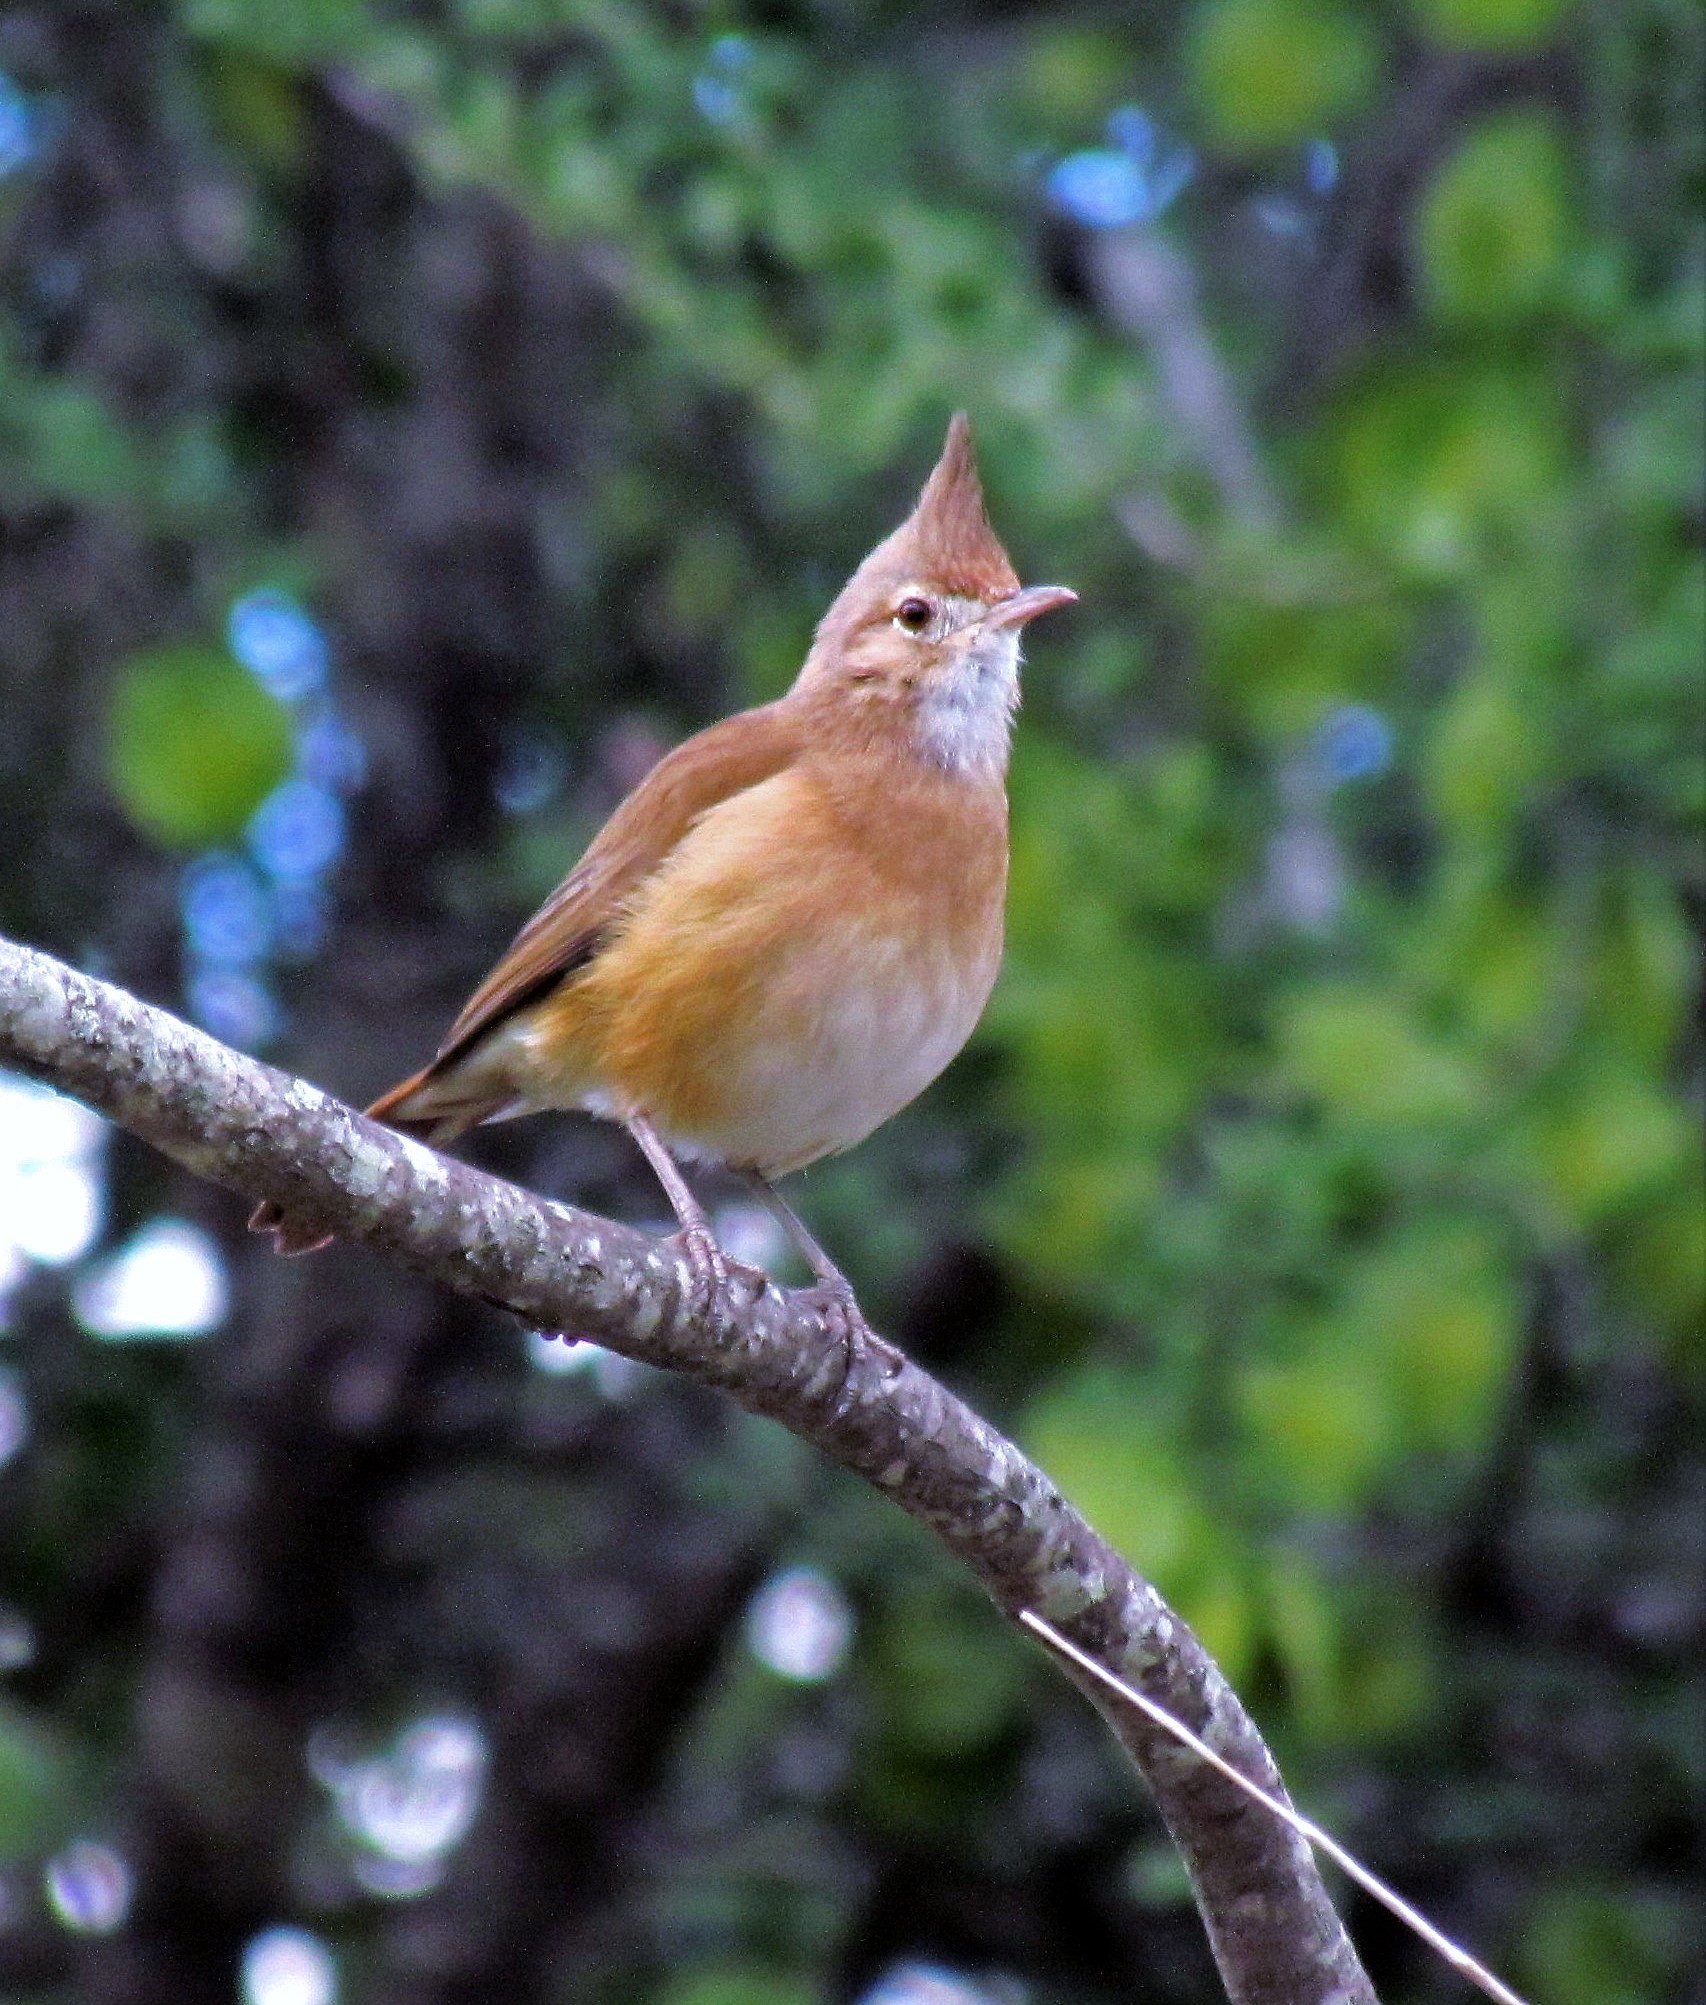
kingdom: Animalia
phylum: Chordata
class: Aves
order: Passeriformes
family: Furnariidae
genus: Furnarius
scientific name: Furnarius cristatus
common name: Crested hornero
